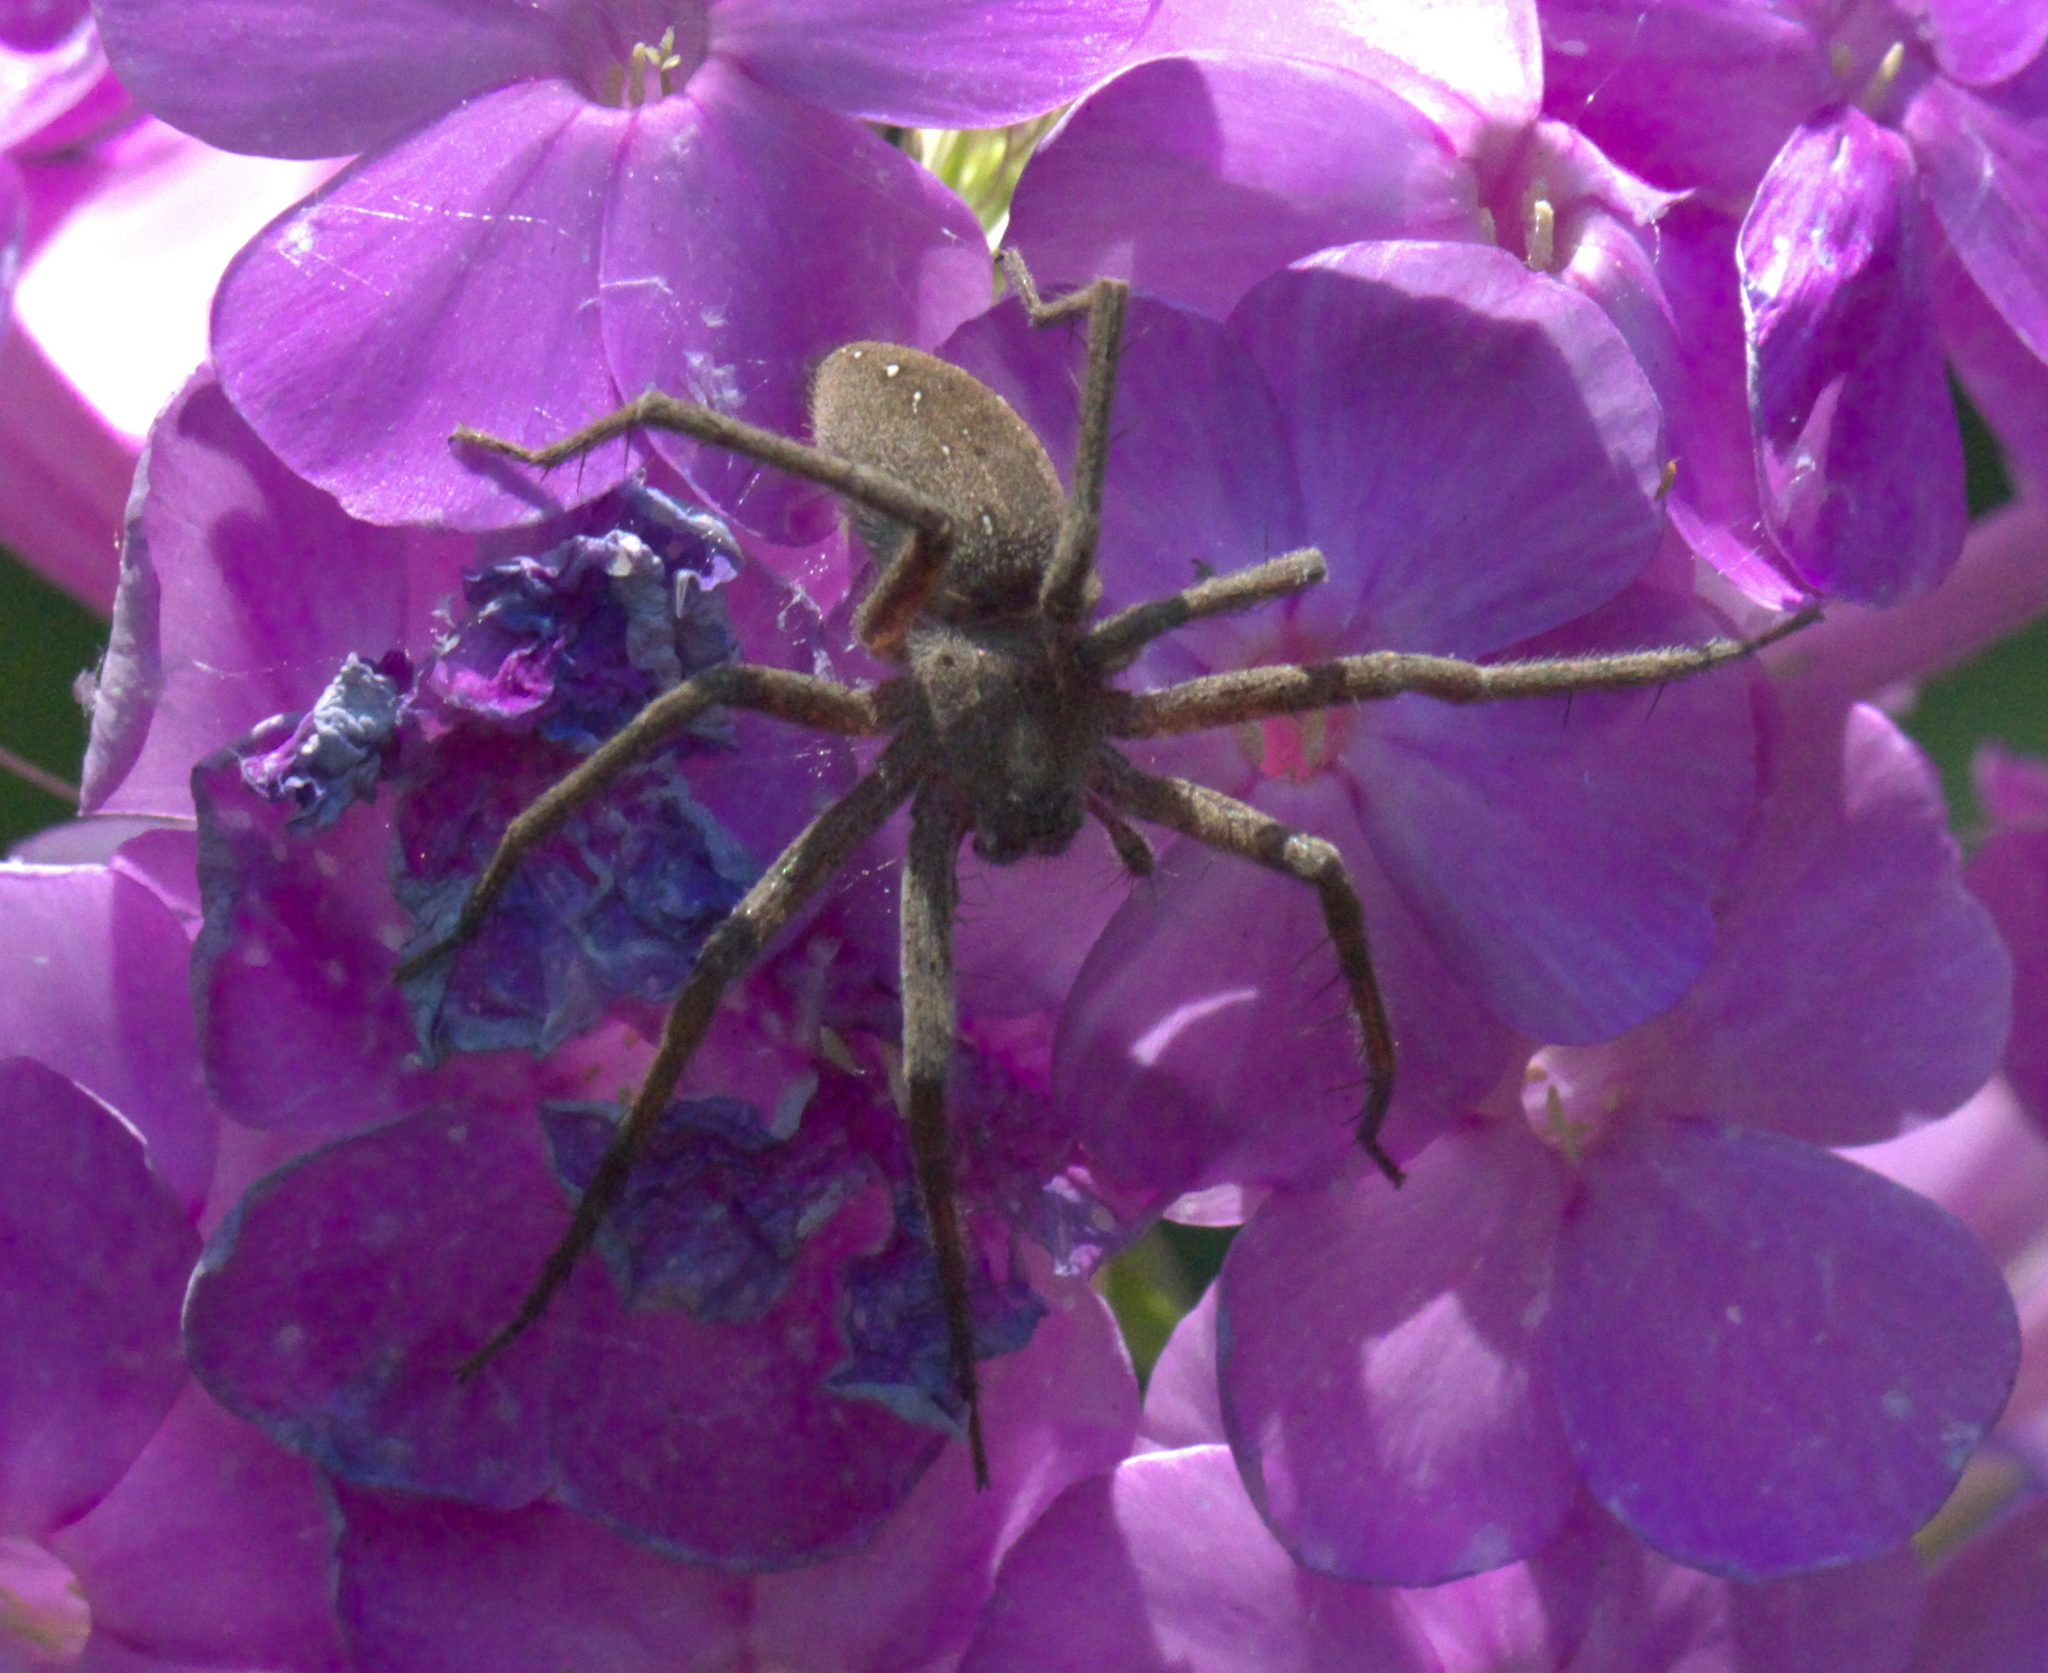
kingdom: Animalia
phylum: Arthropoda
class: Arachnida
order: Araneae
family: Pisauridae
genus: Pisaurina
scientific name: Pisaurina mira
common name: American nursery web spider
